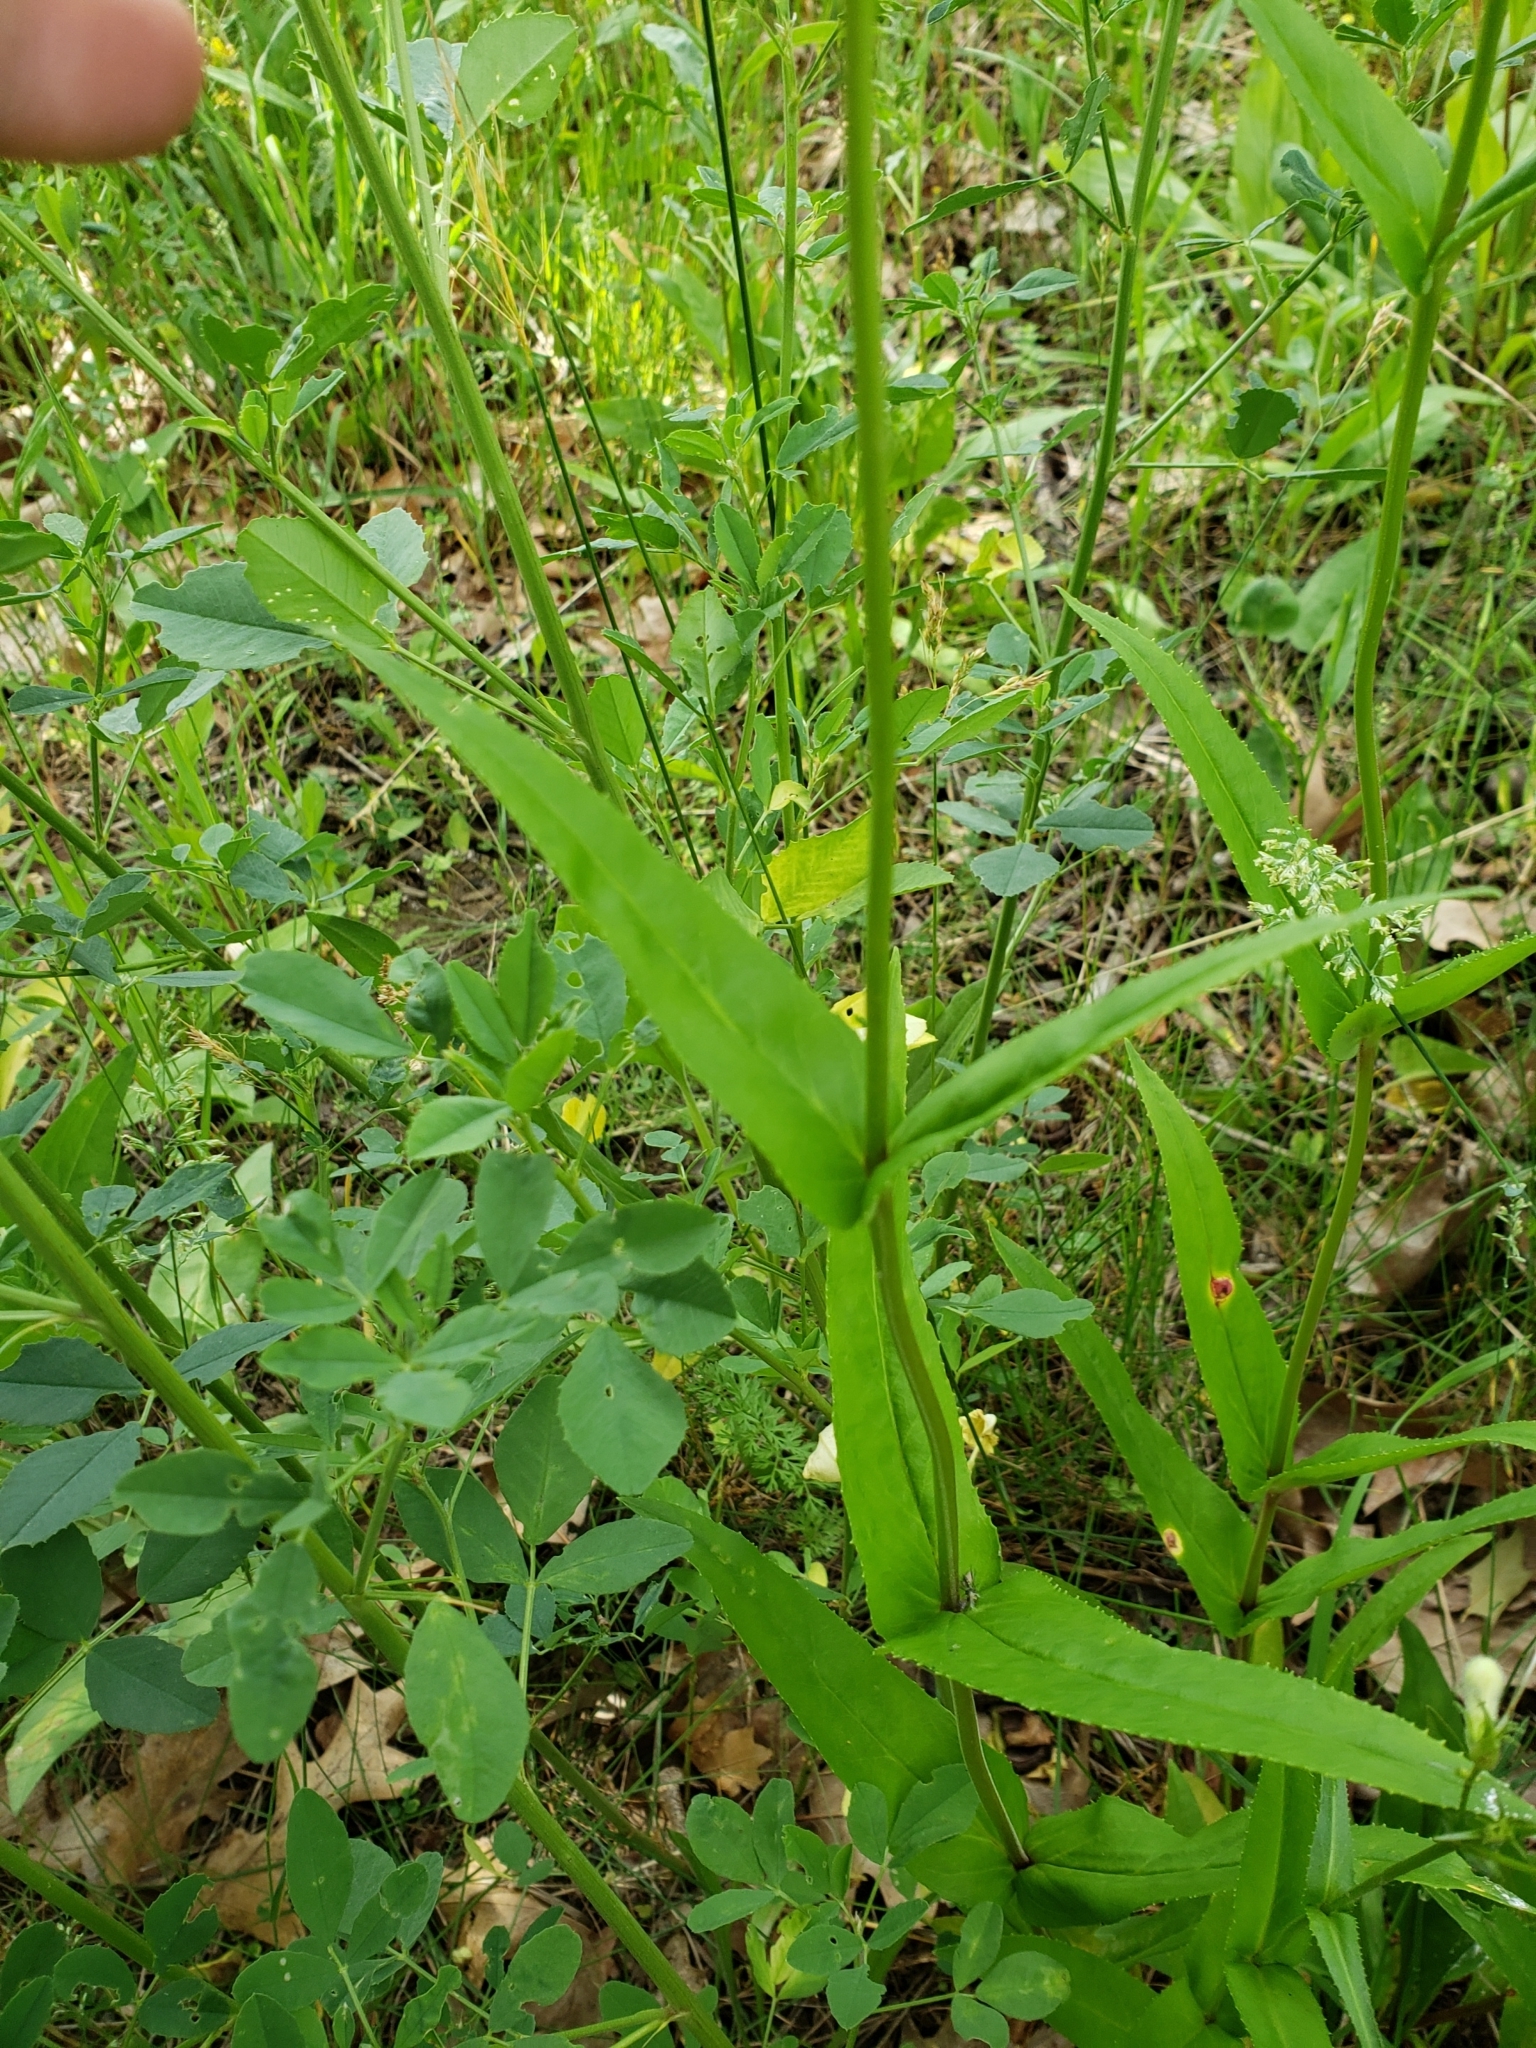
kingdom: Plantae
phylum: Tracheophyta
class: Magnoliopsida
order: Lamiales
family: Plantaginaceae
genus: Penstemon
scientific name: Penstemon digitalis
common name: Foxglove beardtongue
